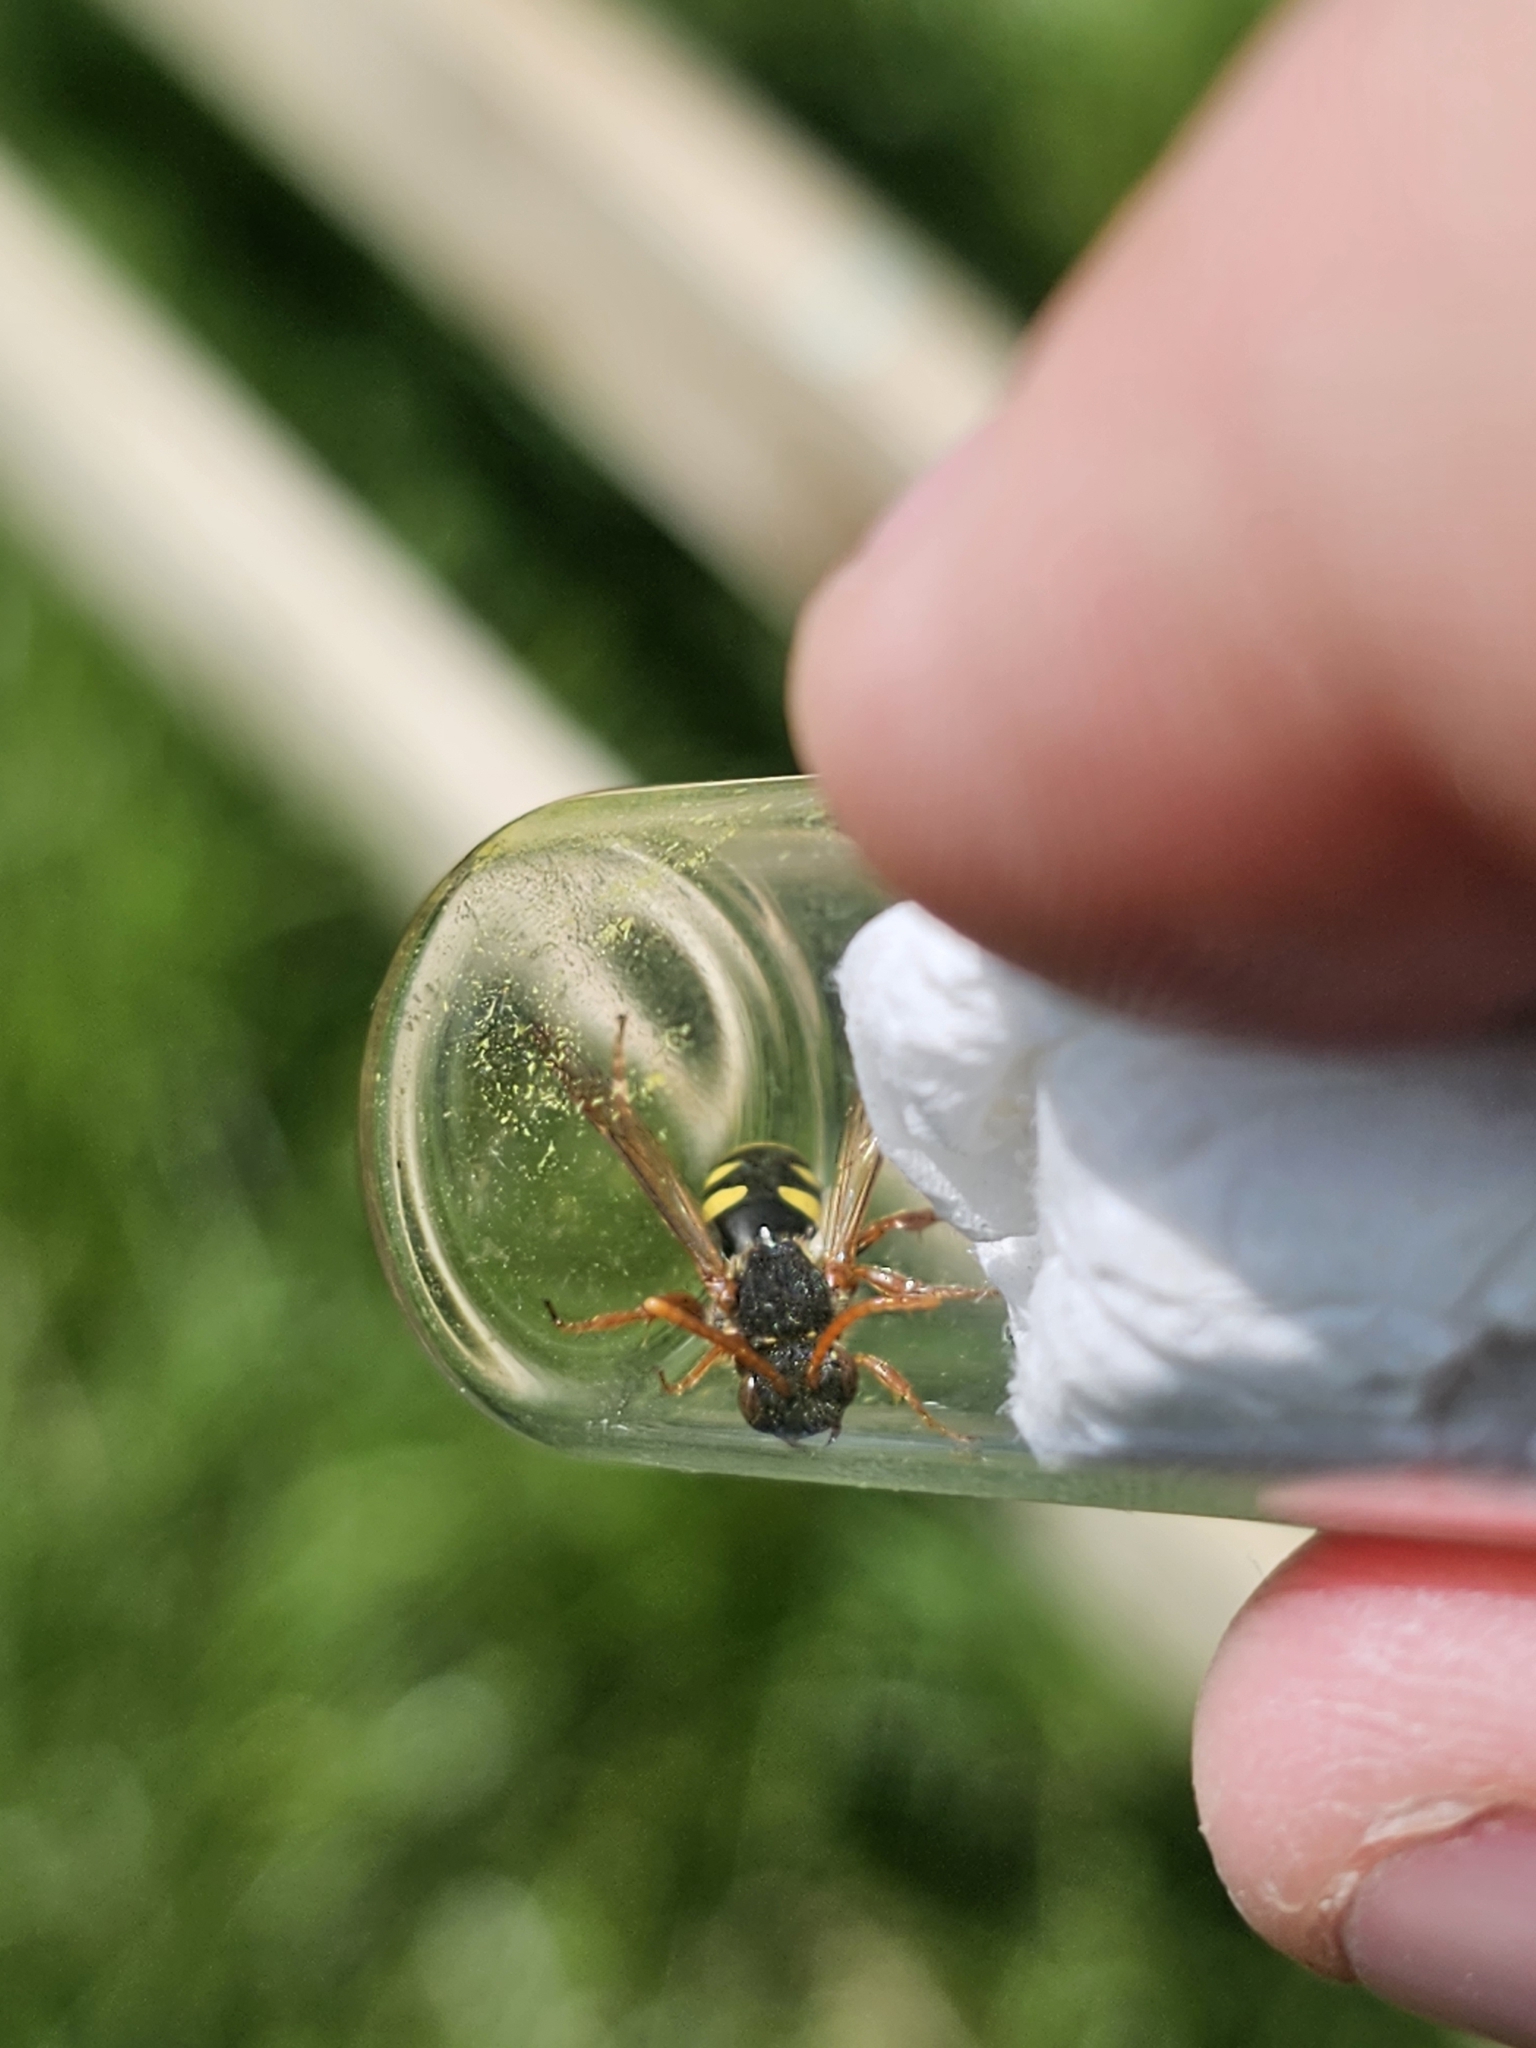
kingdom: Animalia
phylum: Arthropoda
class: Insecta
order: Hymenoptera
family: Apidae
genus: Nomada
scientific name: Nomada marshamella
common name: Marsham's nomad bee
